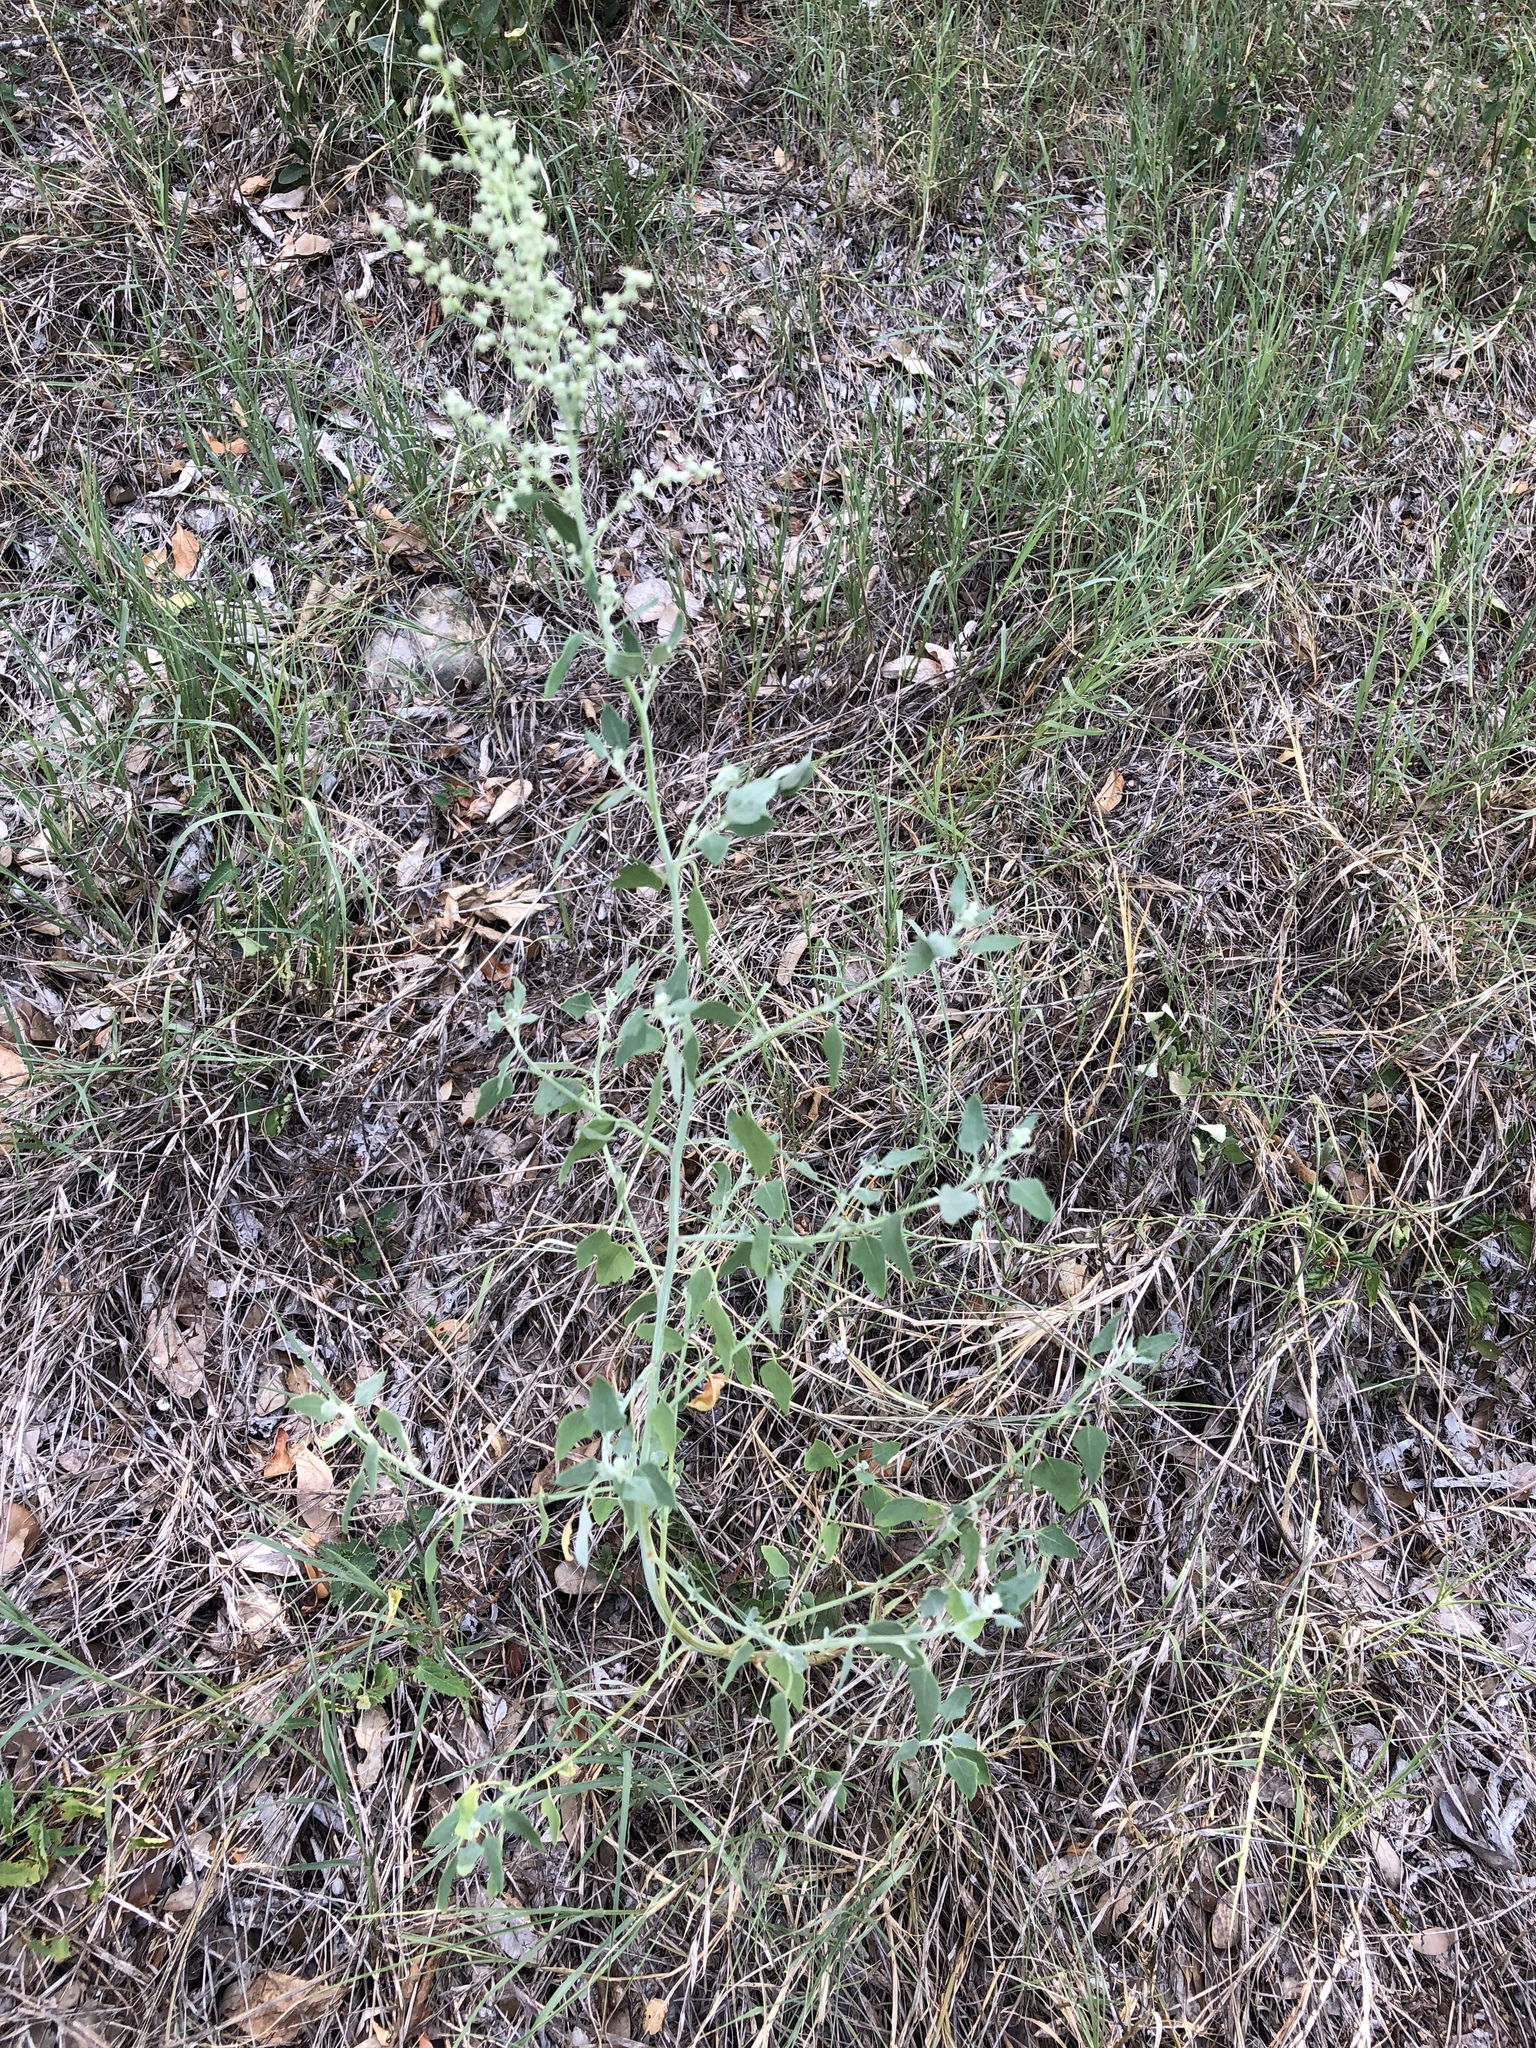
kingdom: Plantae
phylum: Tracheophyta
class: Magnoliopsida
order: Caryophyllales
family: Amaranthaceae
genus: Chenopodium
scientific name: Chenopodium album
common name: Fat-hen
